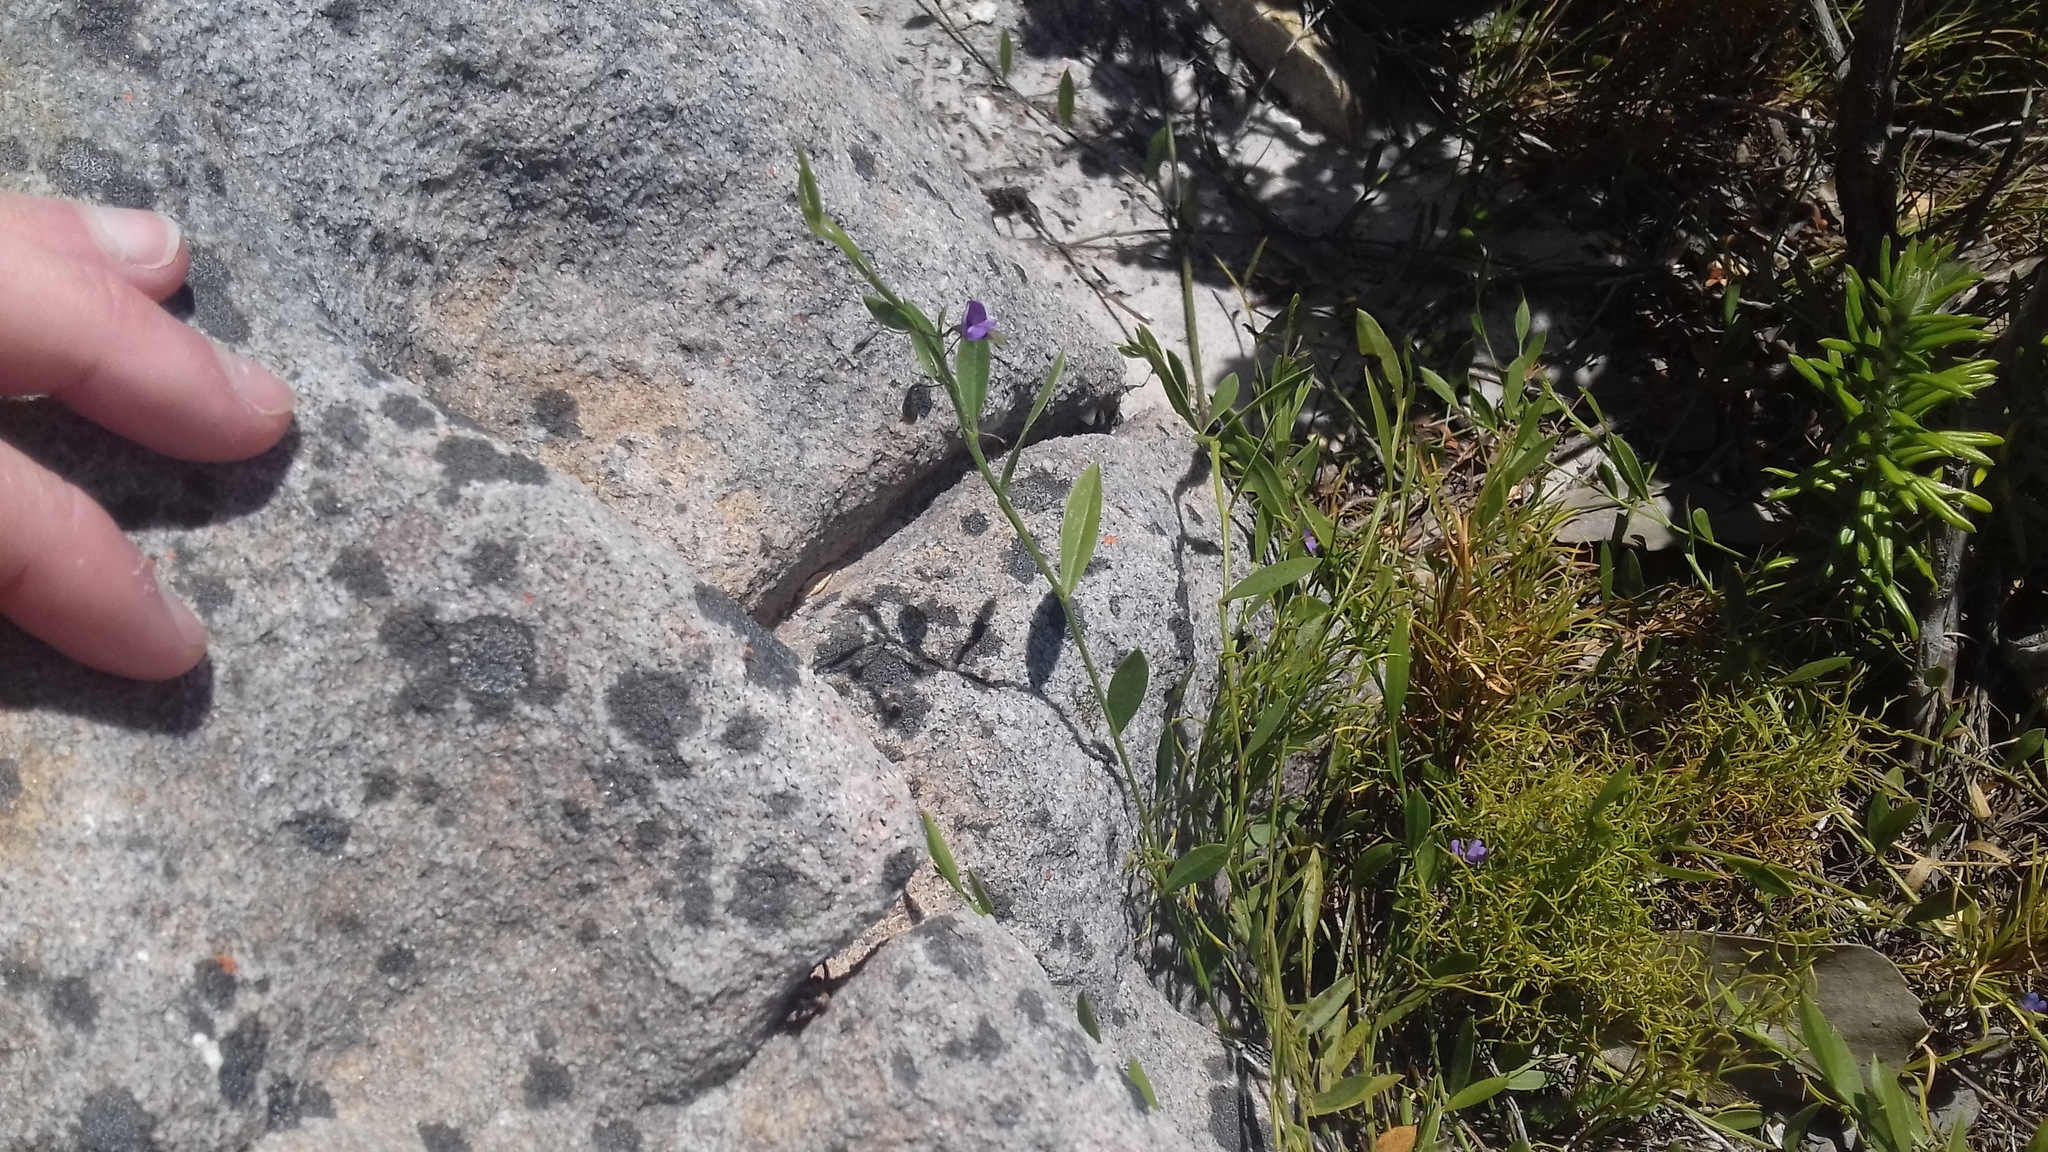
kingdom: Plantae
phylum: Tracheophyta
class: Magnoliopsida
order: Fabales
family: Fabaceae
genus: Psoralea
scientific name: Psoralea laxa
